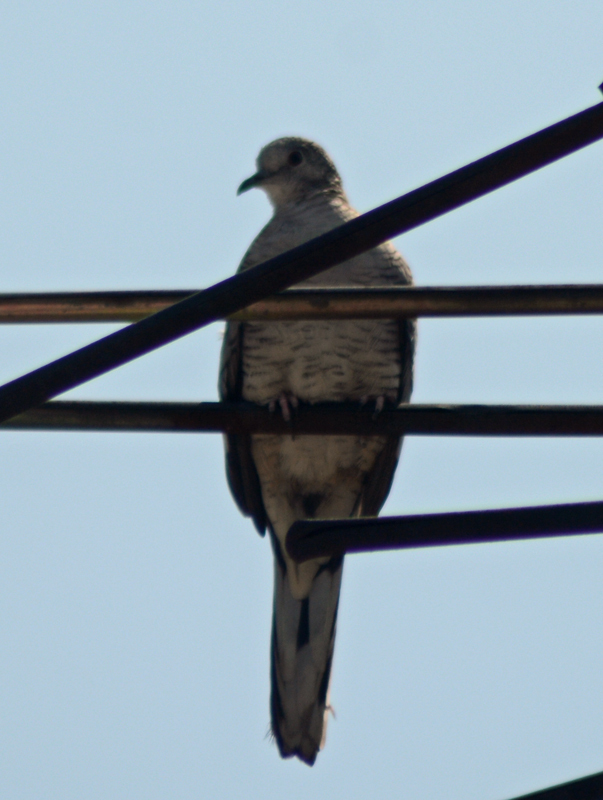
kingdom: Animalia
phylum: Chordata
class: Aves
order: Columbiformes
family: Columbidae
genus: Columbina
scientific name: Columbina inca
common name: Inca dove
